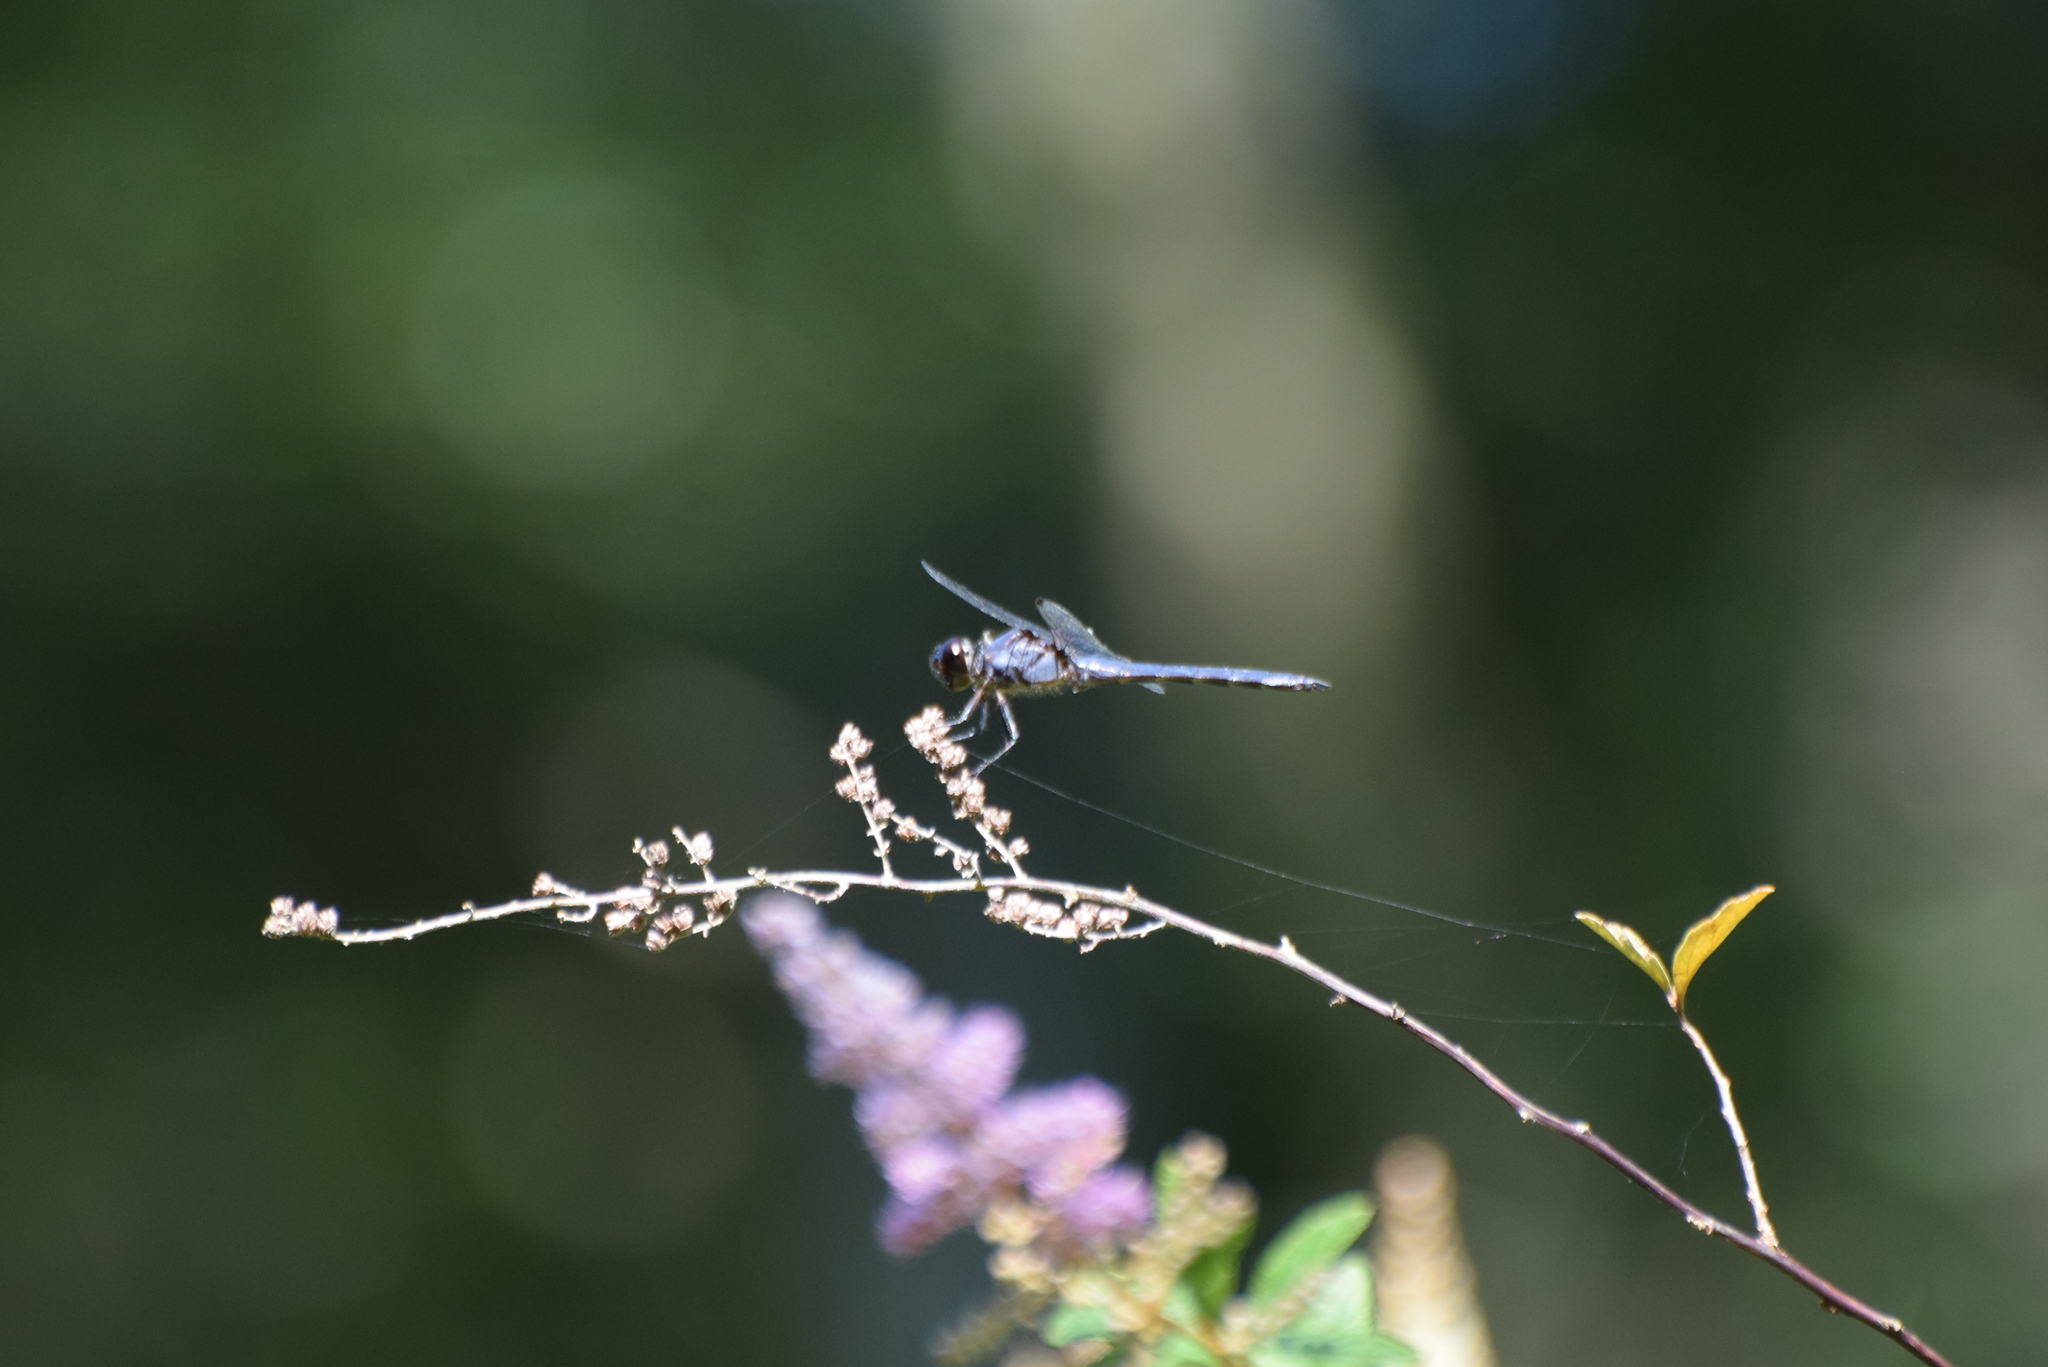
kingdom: Animalia
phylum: Arthropoda
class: Insecta
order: Odonata
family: Libellulidae
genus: Libellula
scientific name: Libellula incesta
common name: Slaty skimmer
